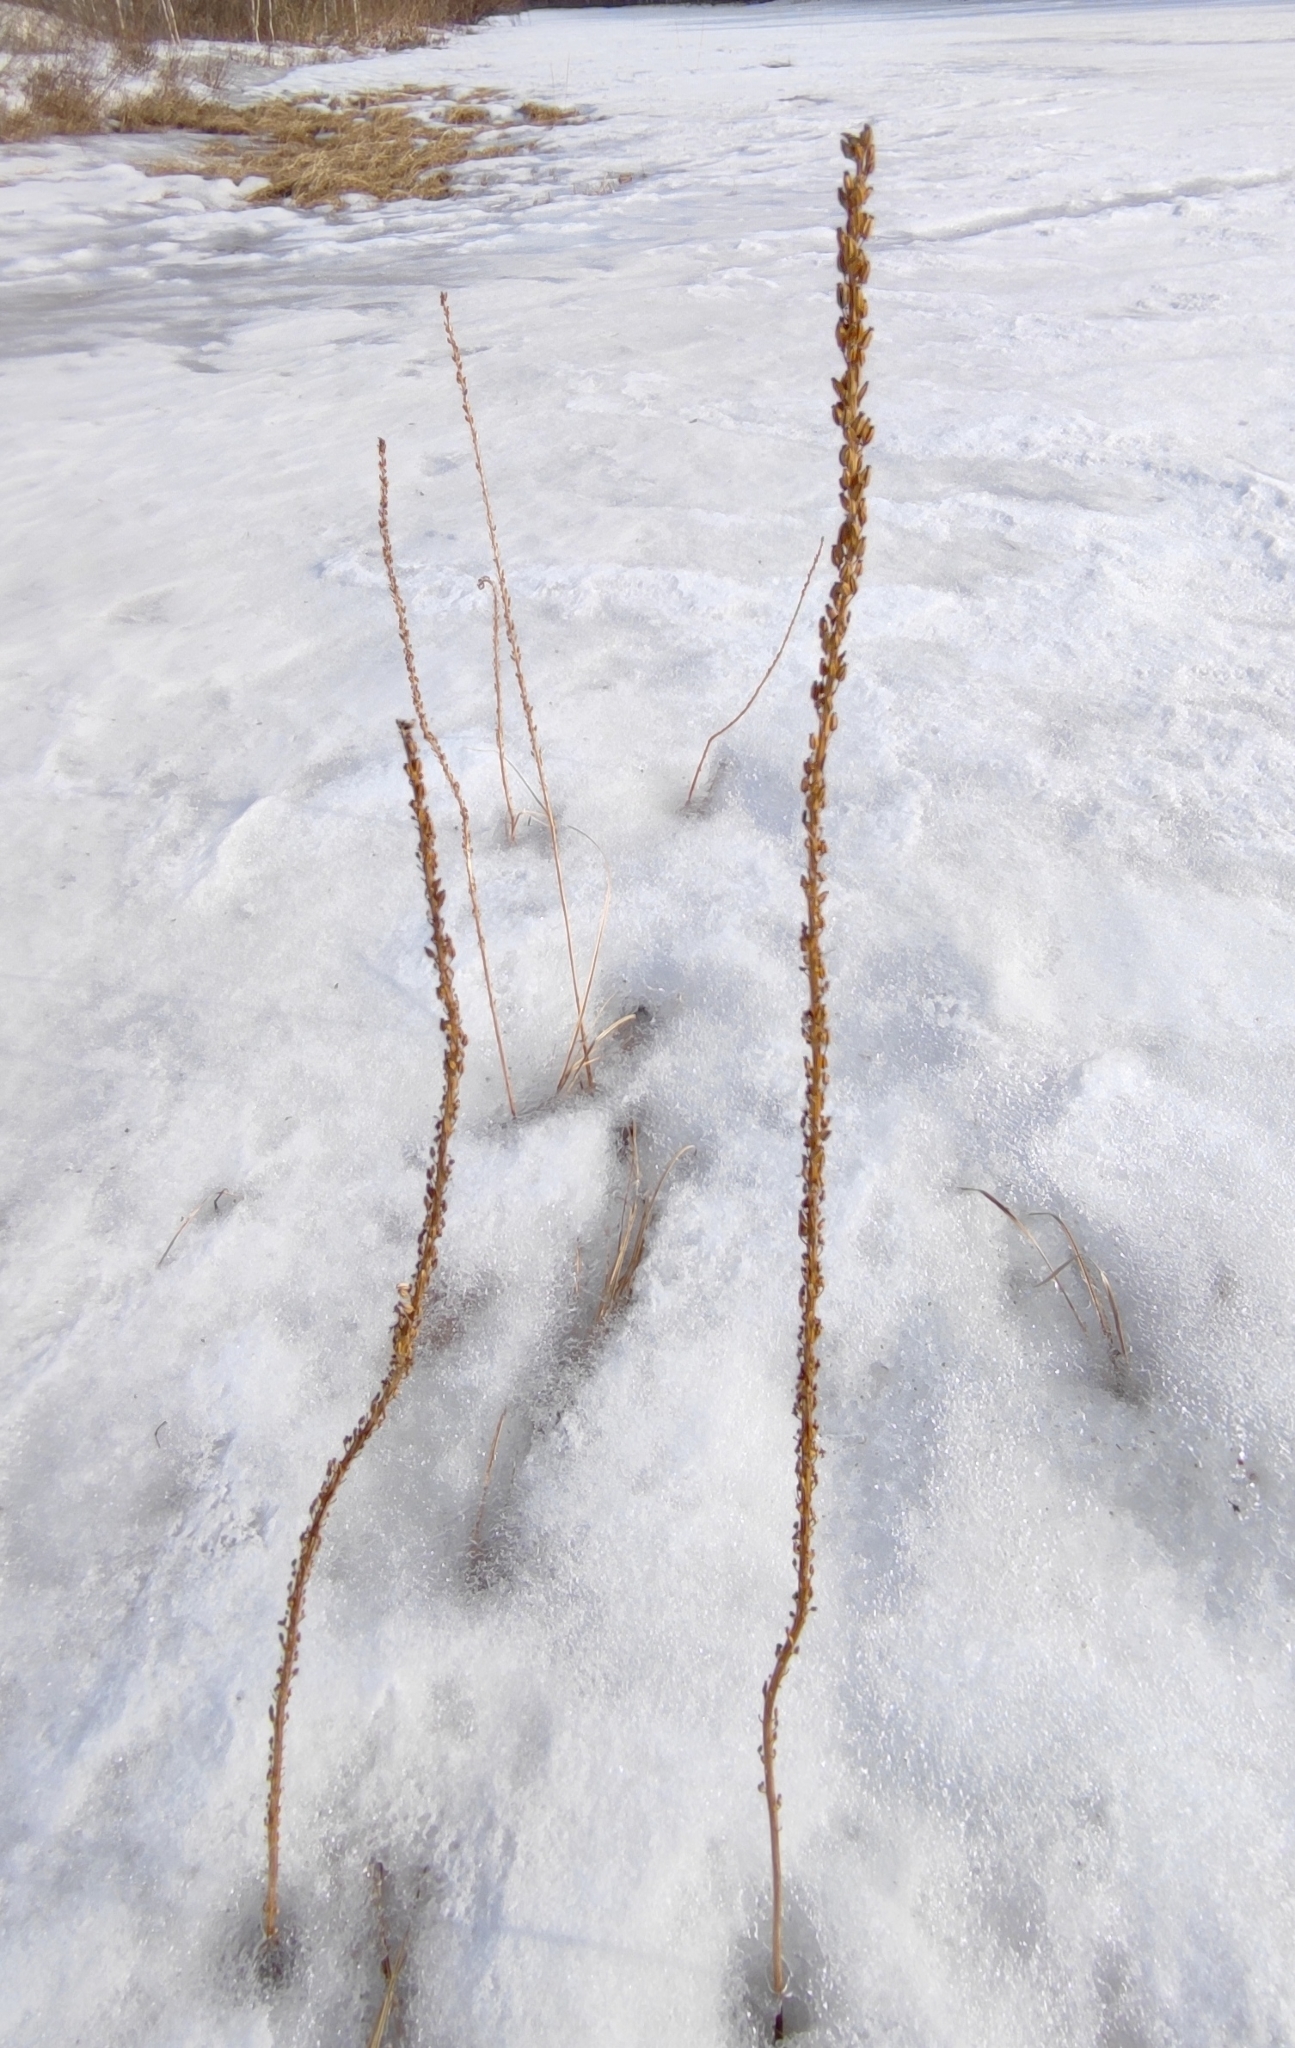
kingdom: Plantae
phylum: Tracheophyta
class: Liliopsida
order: Alismatales
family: Juncaginaceae
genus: Triglochin
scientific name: Triglochin maritima
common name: Sea arrowgrass
